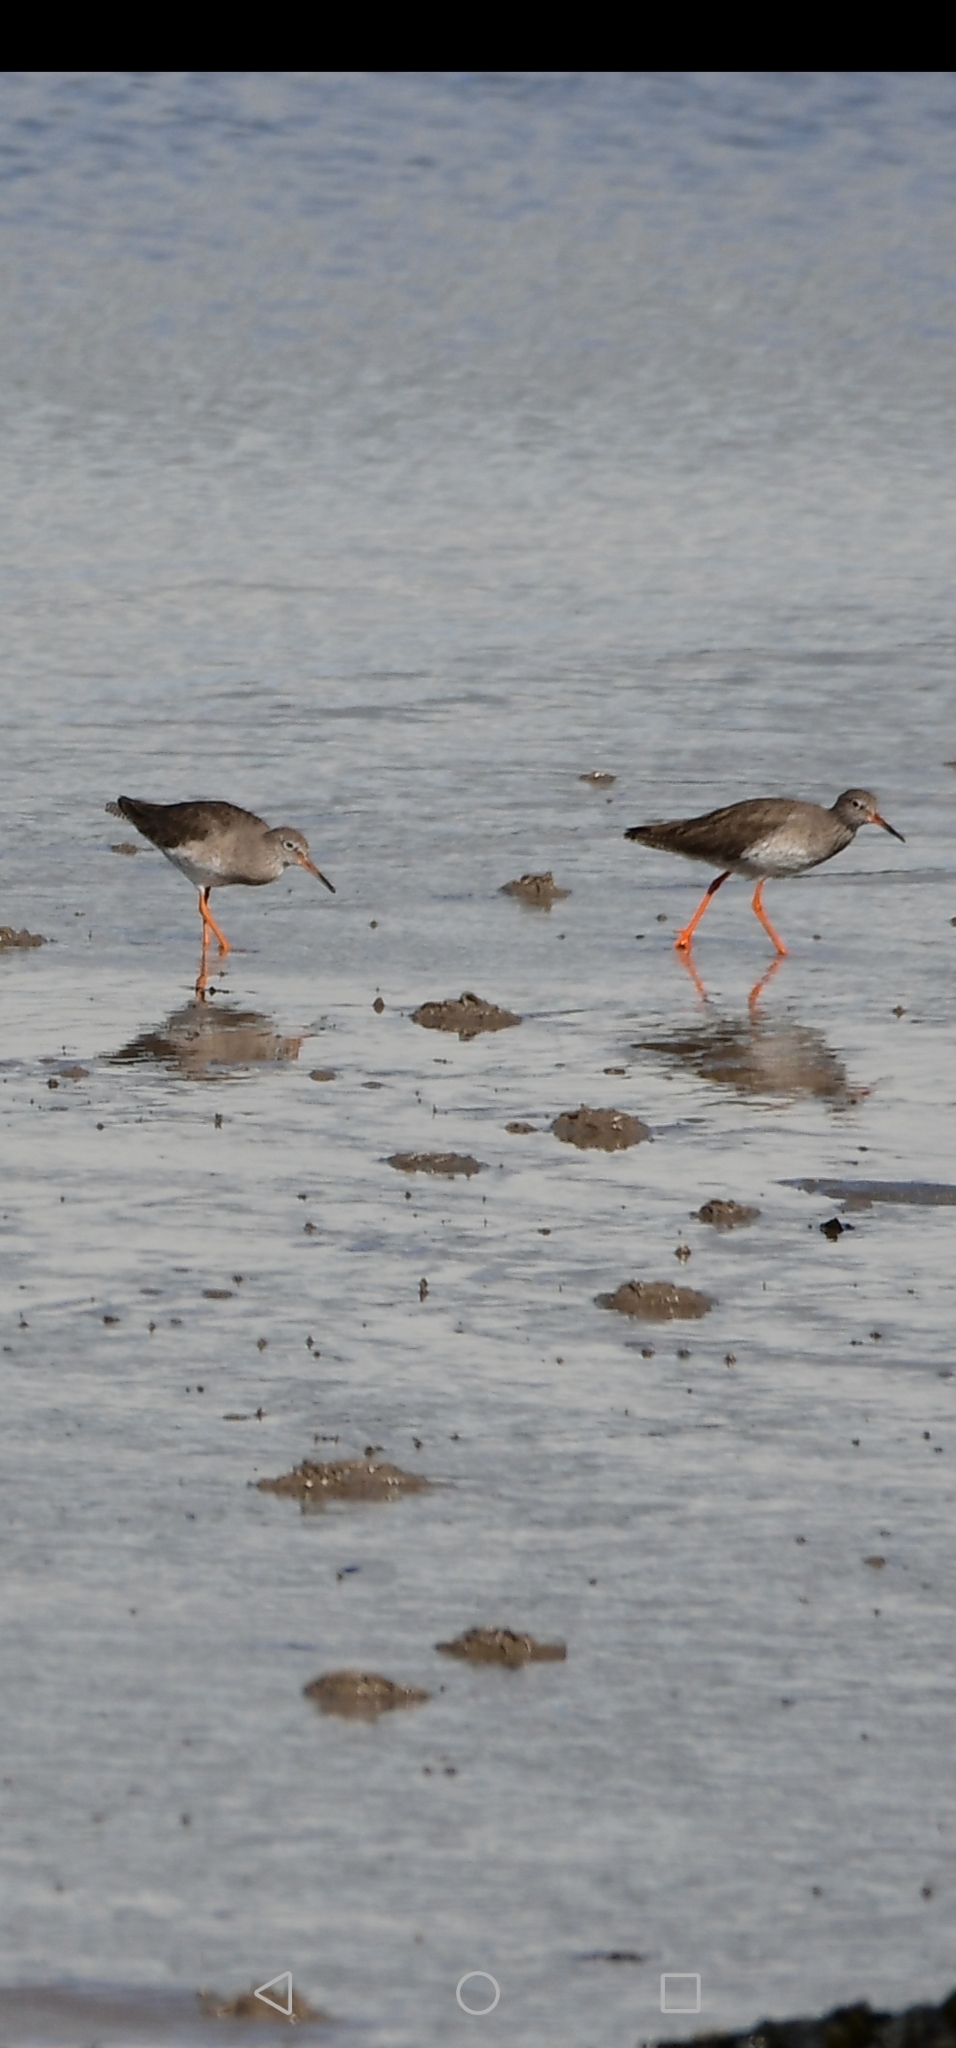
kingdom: Animalia
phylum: Chordata
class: Aves
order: Charadriiformes
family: Scolopacidae
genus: Tringa
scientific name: Tringa totanus
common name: Common redshank
